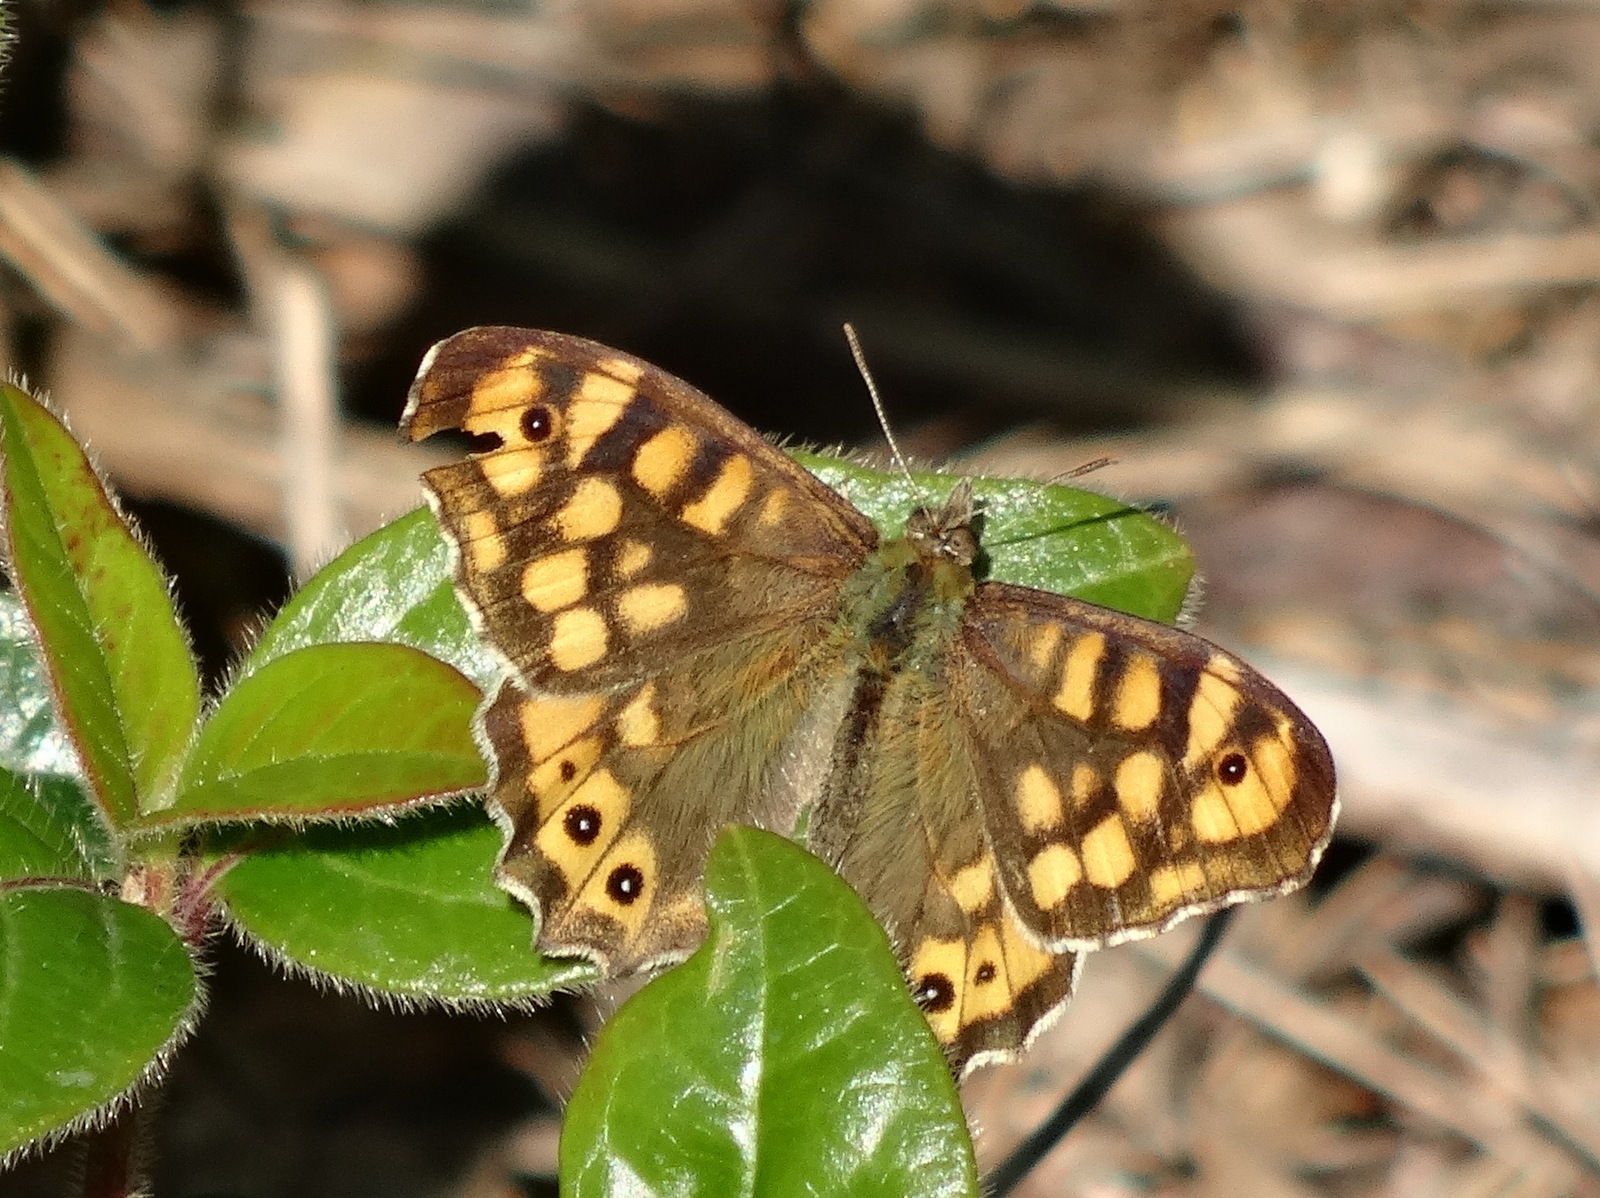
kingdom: Animalia
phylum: Arthropoda
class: Insecta
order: Lepidoptera
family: Nymphalidae
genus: Pararge
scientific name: Pararge aegeria
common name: Speckled wood
